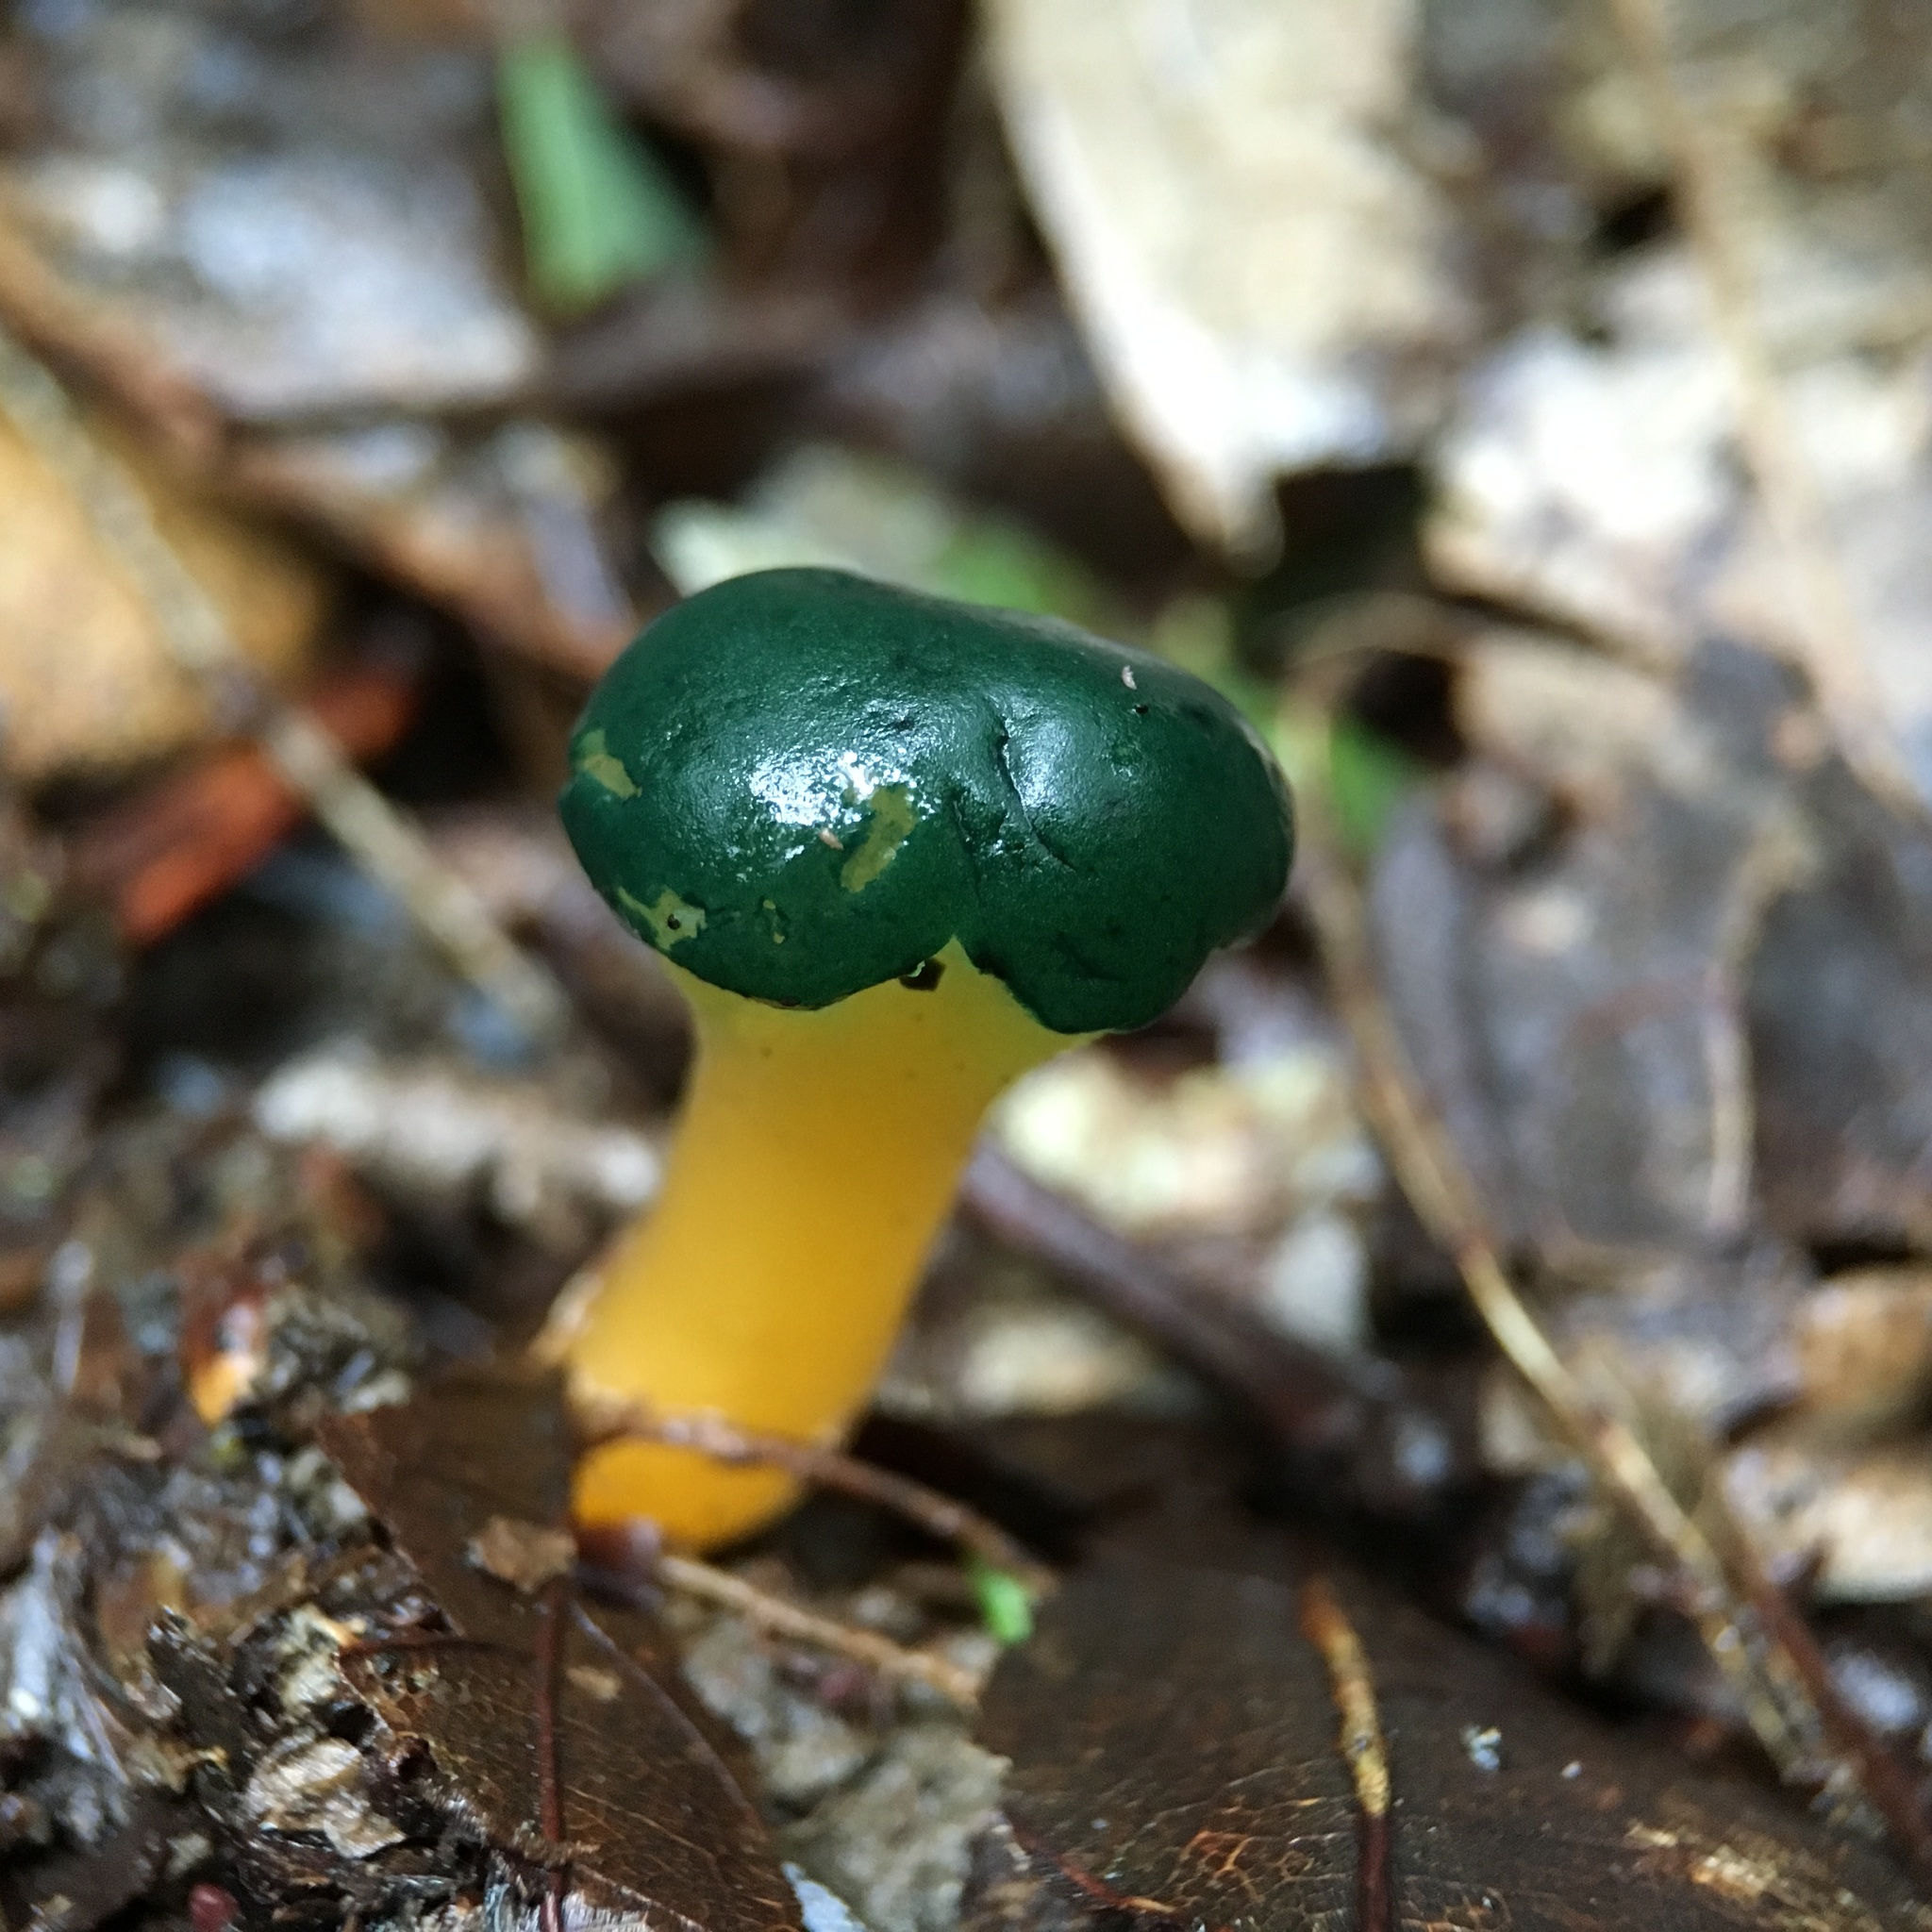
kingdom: Fungi
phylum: Ascomycota
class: Leotiomycetes
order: Leotiales
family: Leotiaceae
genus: Leotia
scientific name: Leotia lubrica
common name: Jellybaby
